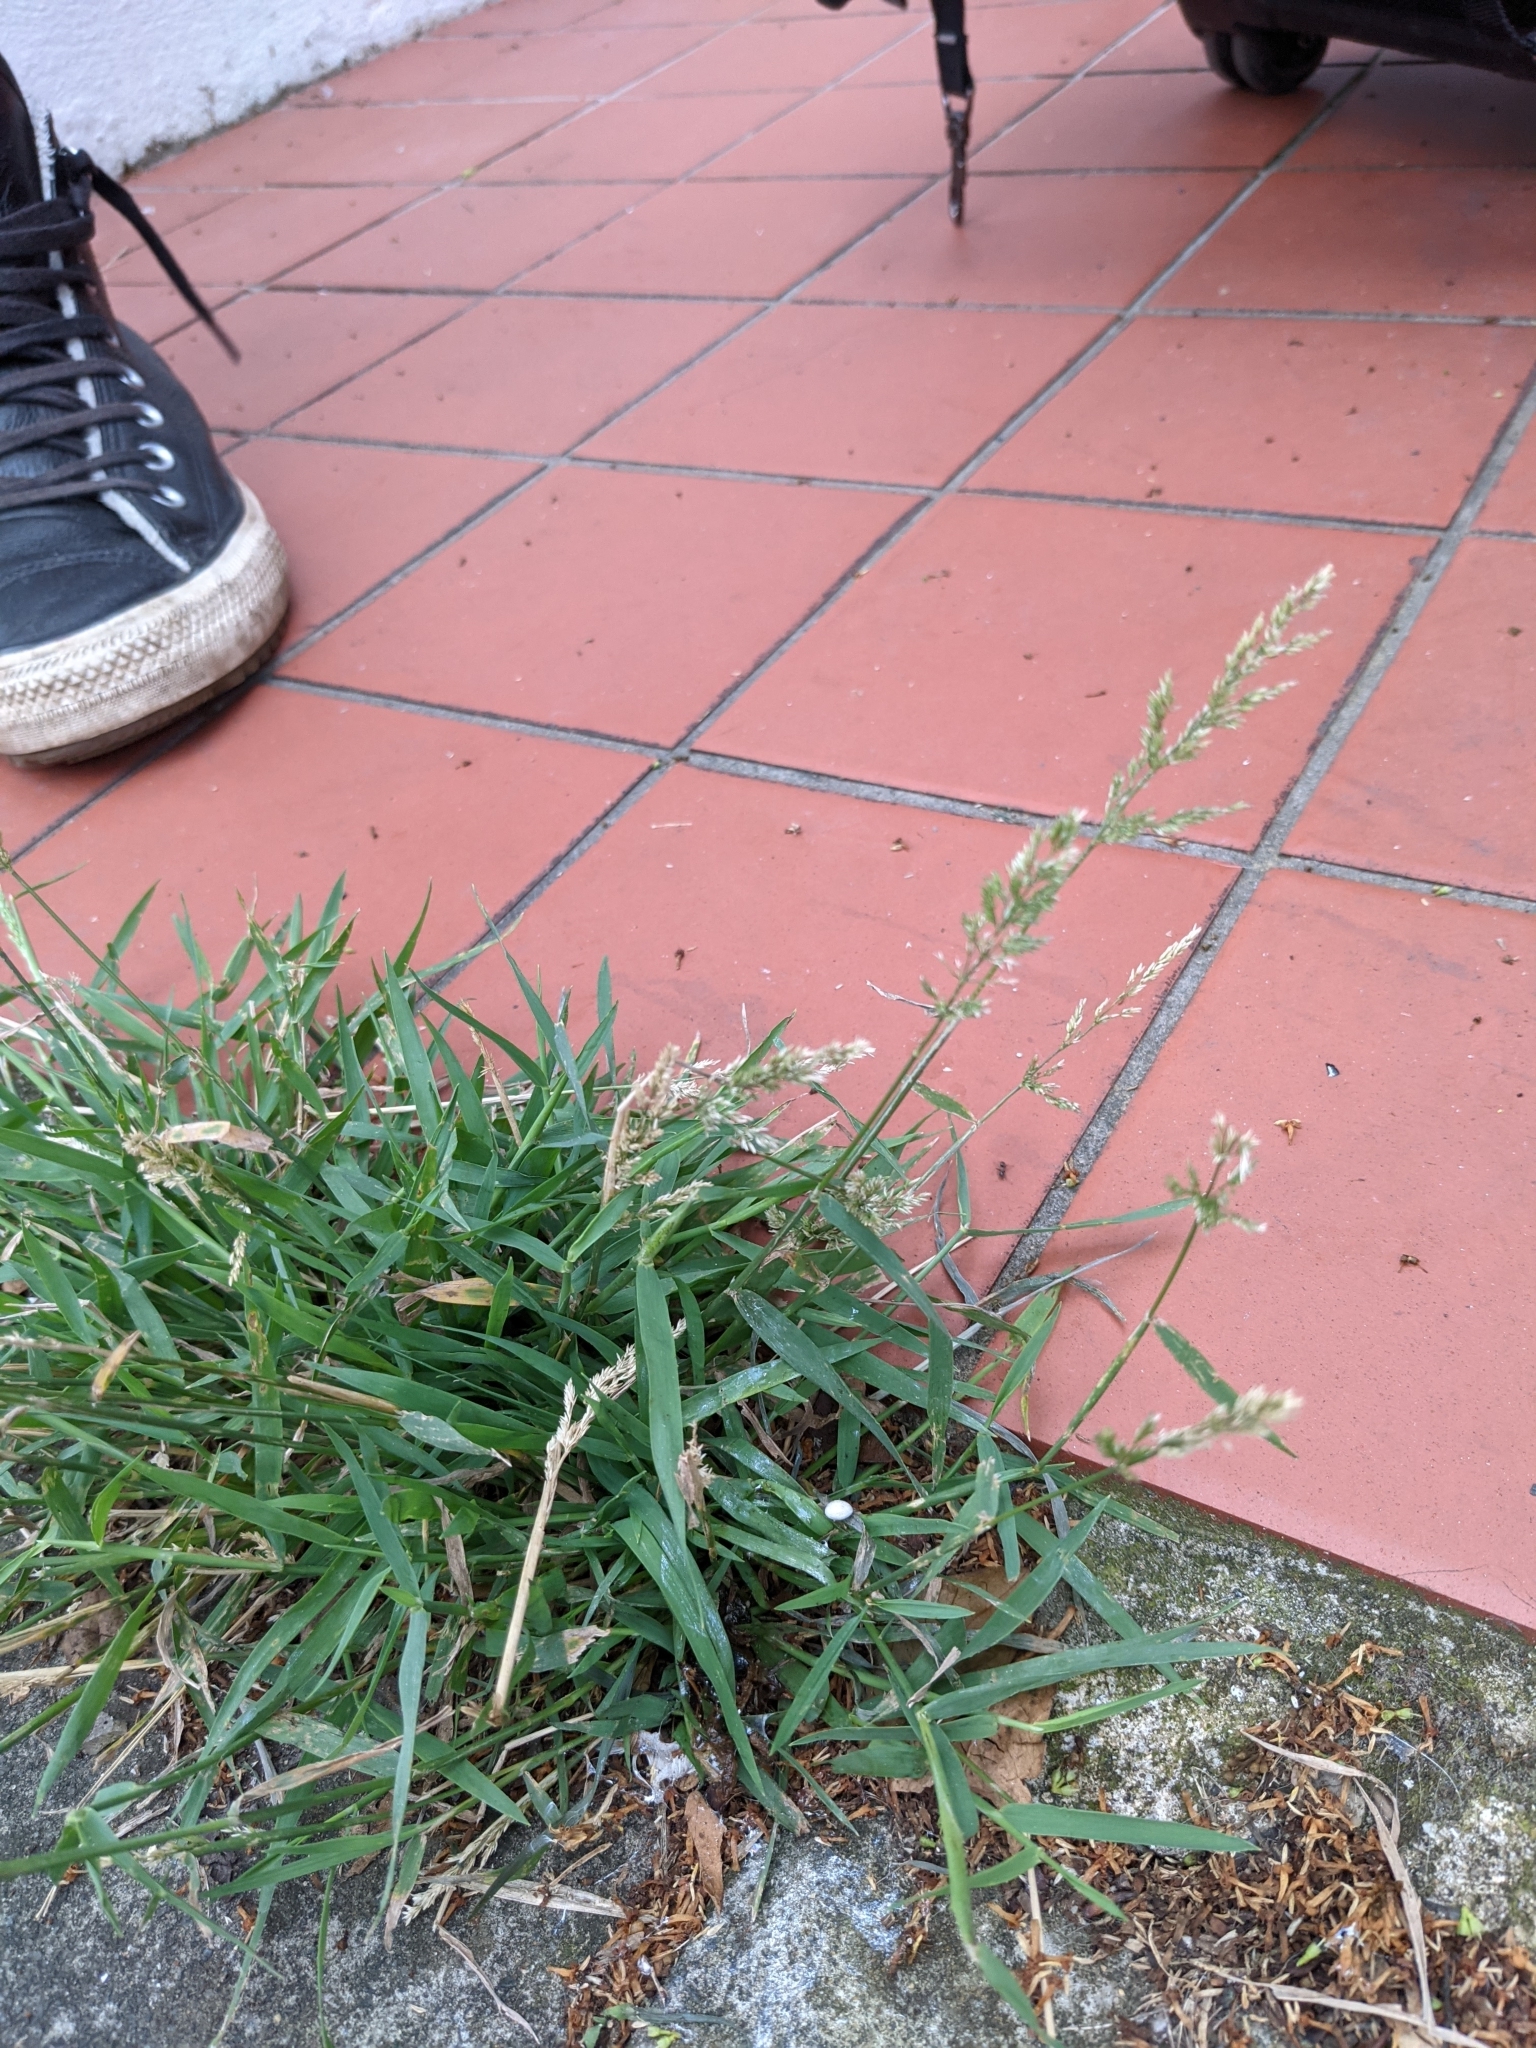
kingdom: Plantae
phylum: Tracheophyta
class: Liliopsida
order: Poales
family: Poaceae
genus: Polypogon
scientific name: Polypogon viridis
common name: Water bent
